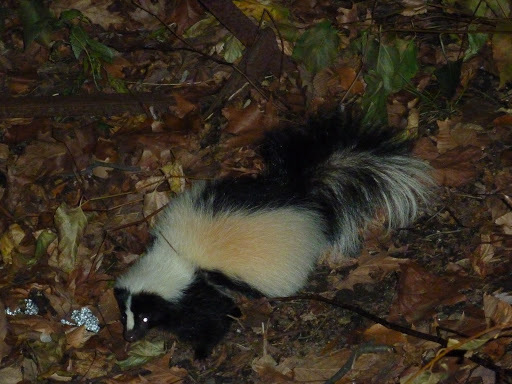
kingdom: Animalia
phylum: Chordata
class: Mammalia
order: Carnivora
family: Mephitidae
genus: Mephitis
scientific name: Mephitis mephitis
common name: Striped skunk
